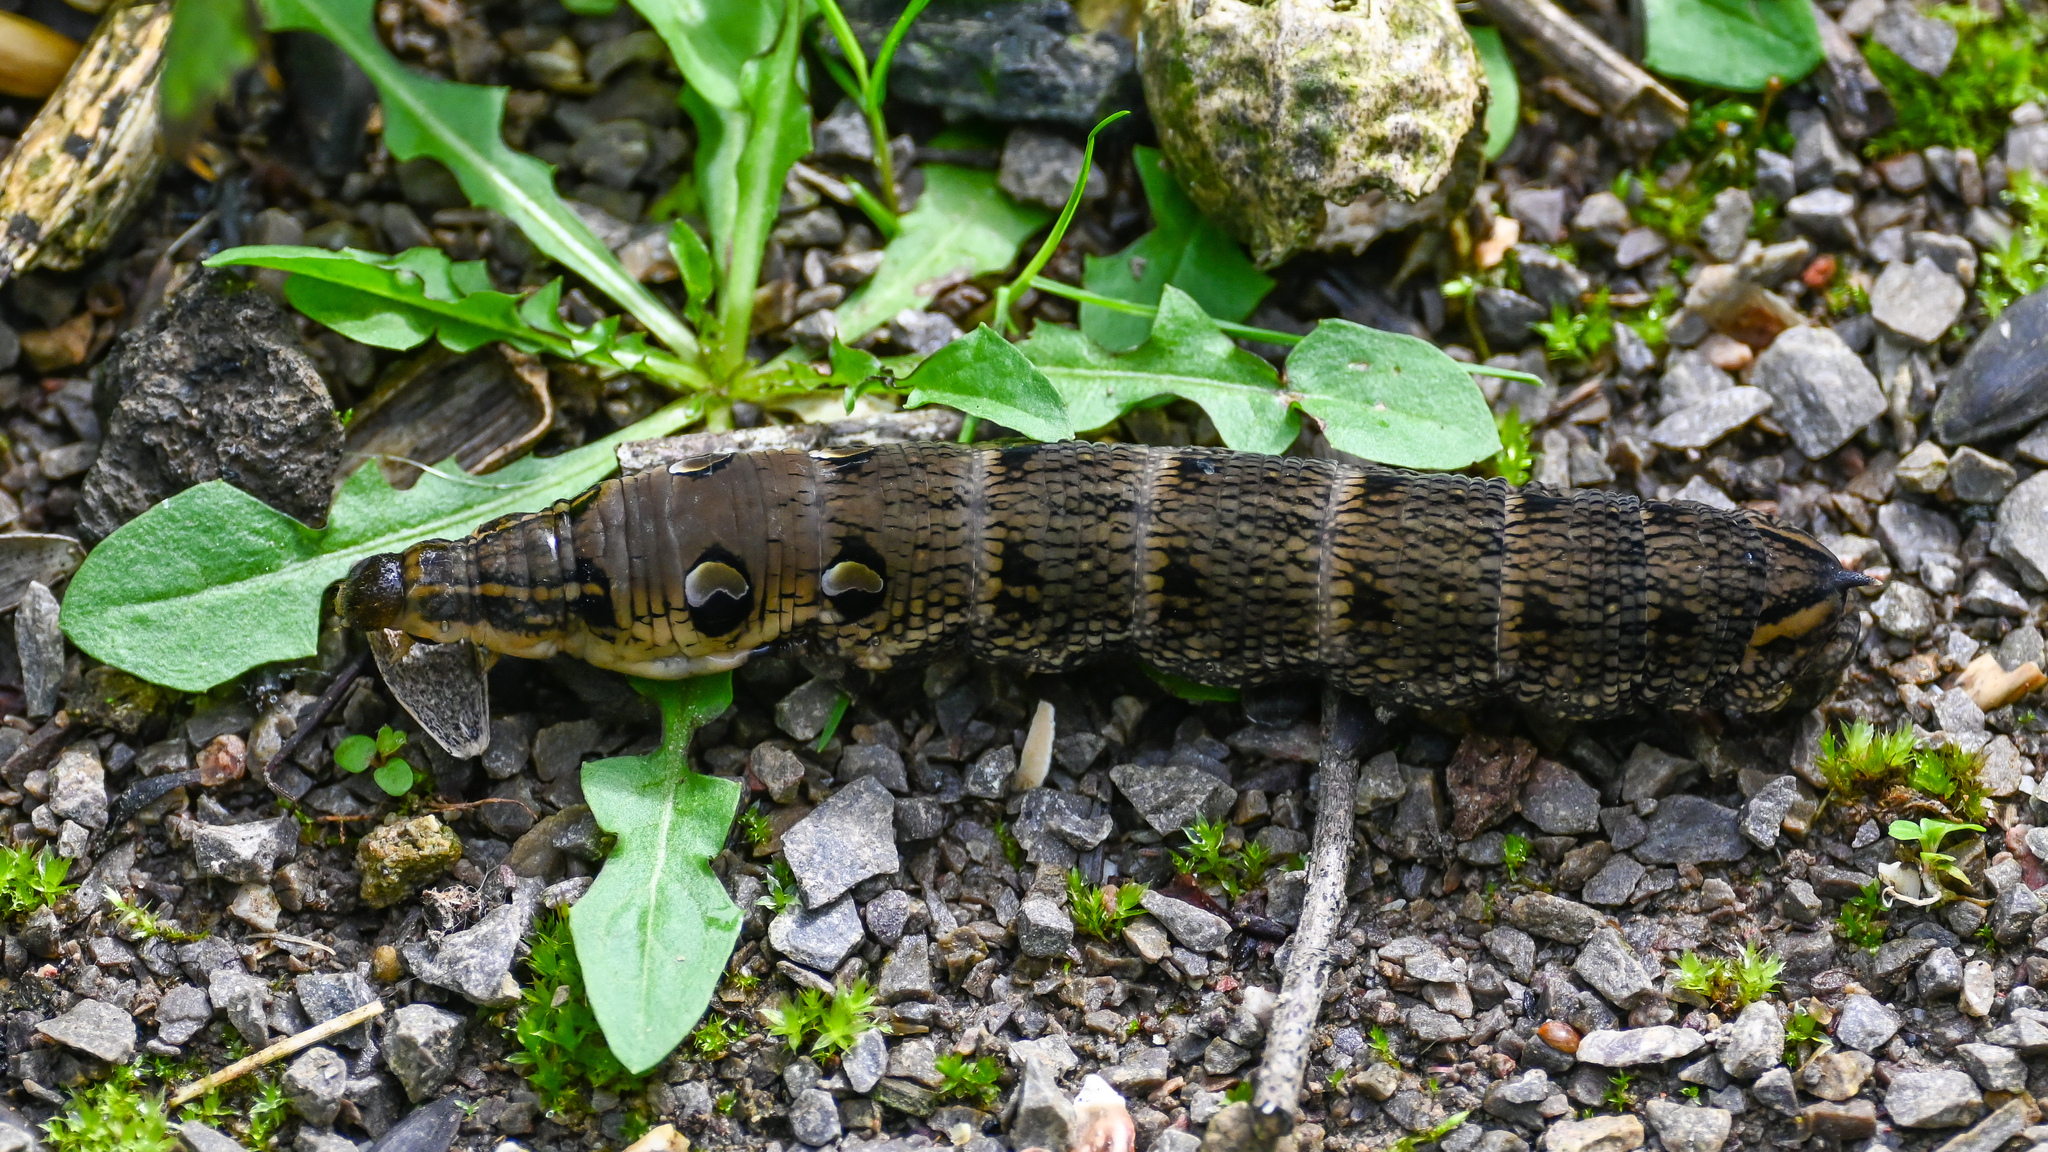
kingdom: Animalia
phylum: Arthropoda
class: Insecta
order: Lepidoptera
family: Sphingidae
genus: Deilephila
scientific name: Deilephila elpenor
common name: Elephant hawk-moth
